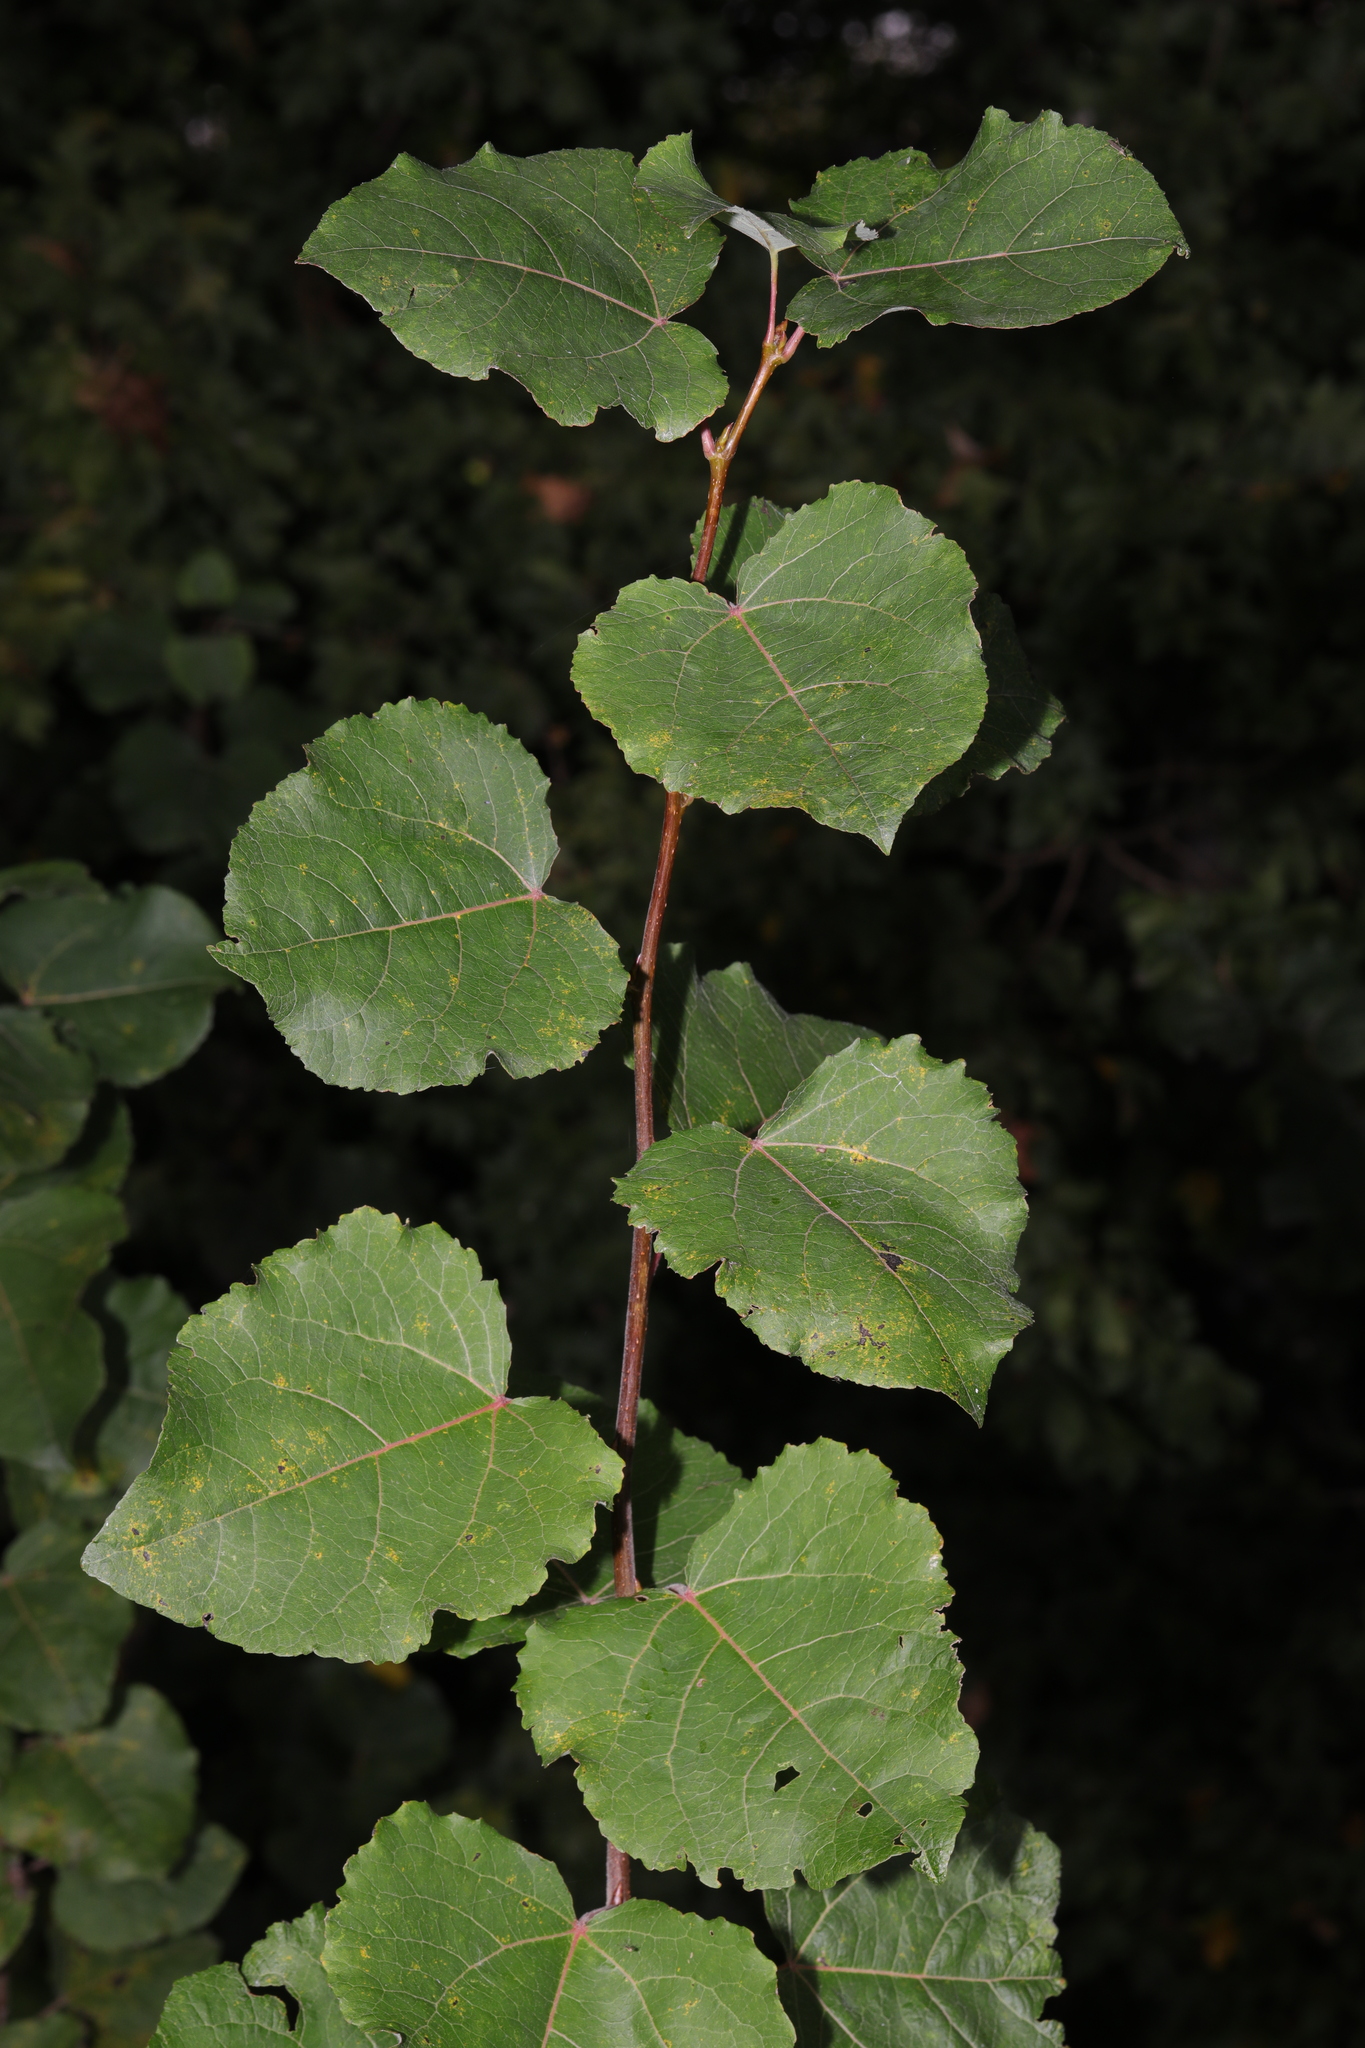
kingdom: Plantae
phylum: Tracheophyta
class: Magnoliopsida
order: Malpighiales
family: Salicaceae
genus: Populus
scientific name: Populus tremula
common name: European aspen
